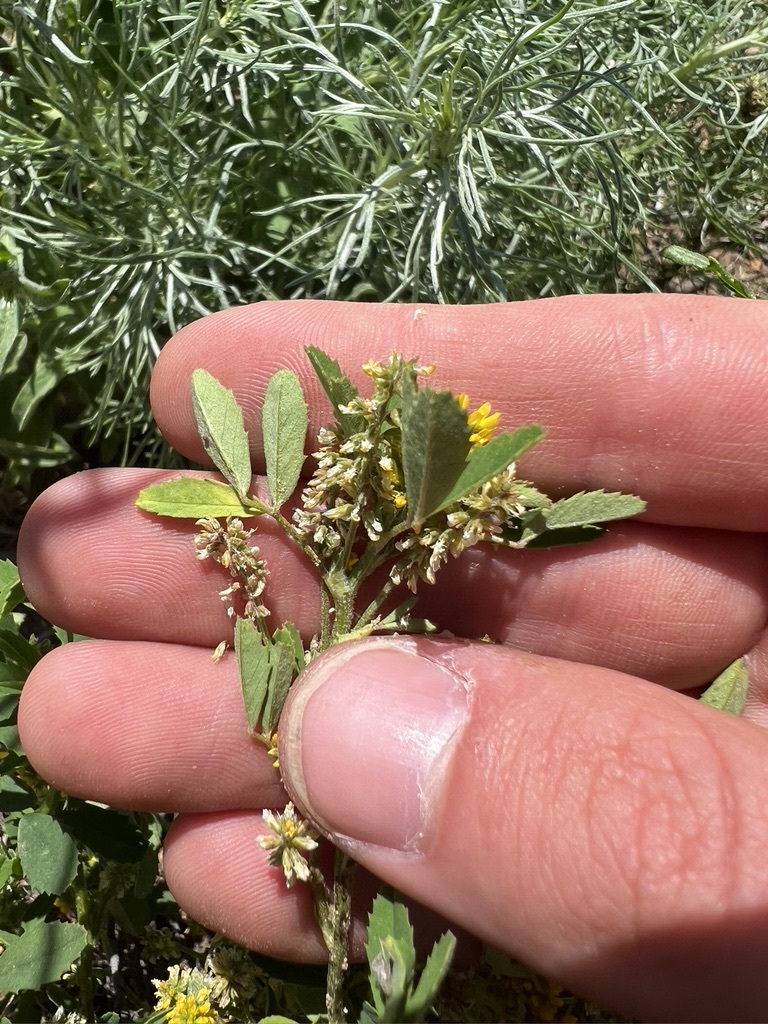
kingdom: Plantae
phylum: Tracheophyta
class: Magnoliopsida
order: Fabales
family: Fabaceae
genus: Melilotus
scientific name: Melilotus indicus
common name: Small melilot
